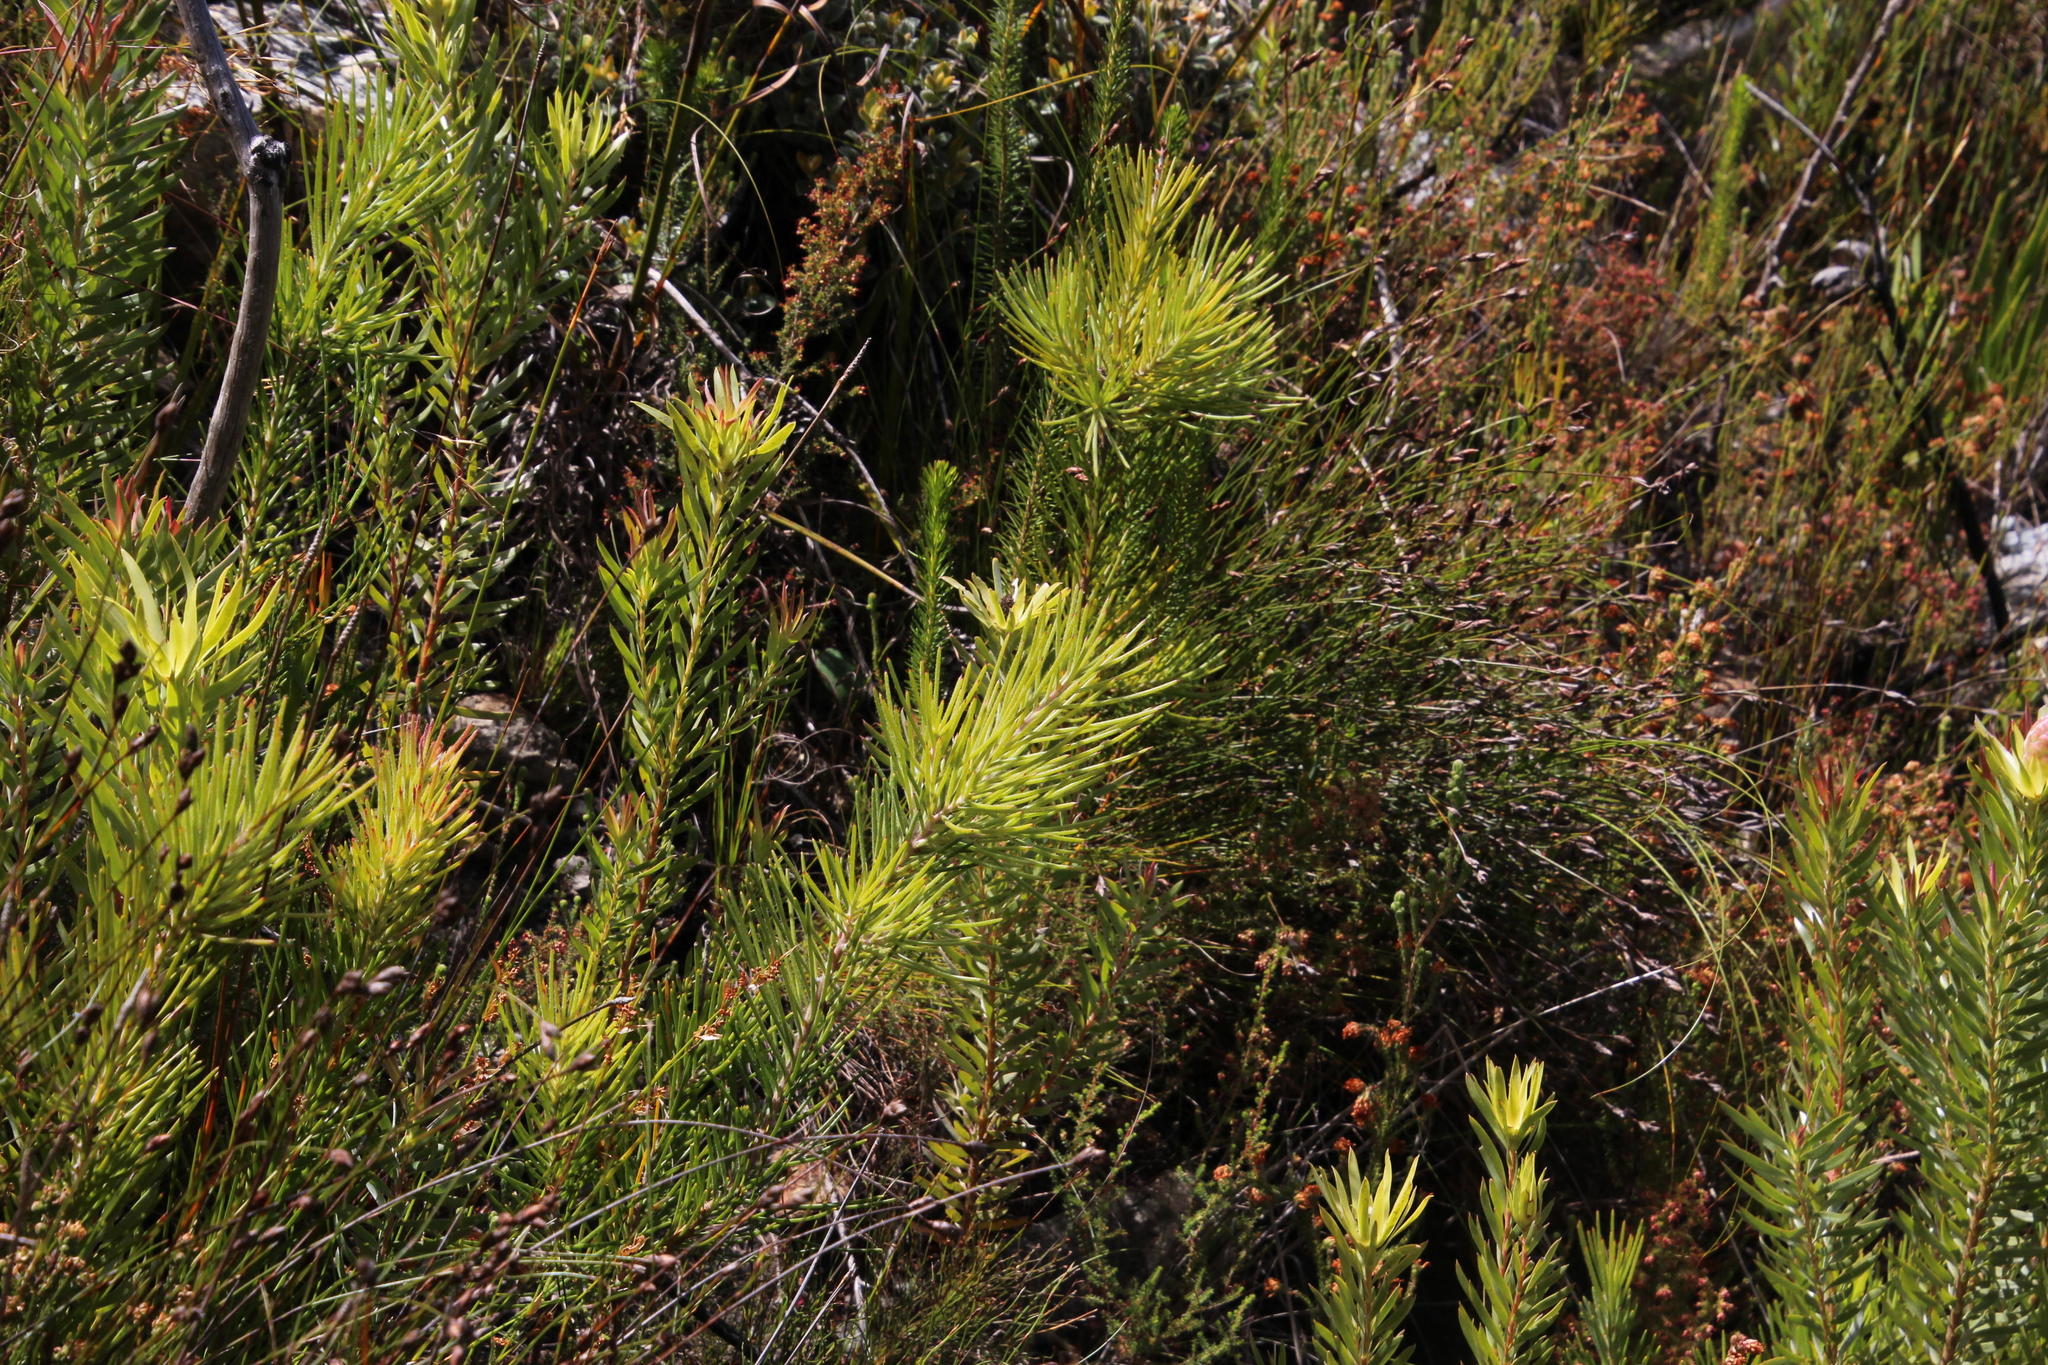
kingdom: Plantae
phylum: Tracheophyta
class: Magnoliopsida
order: Proteales
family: Proteaceae
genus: Hakea
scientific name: Hakea gibbosa
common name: Rock hakea
